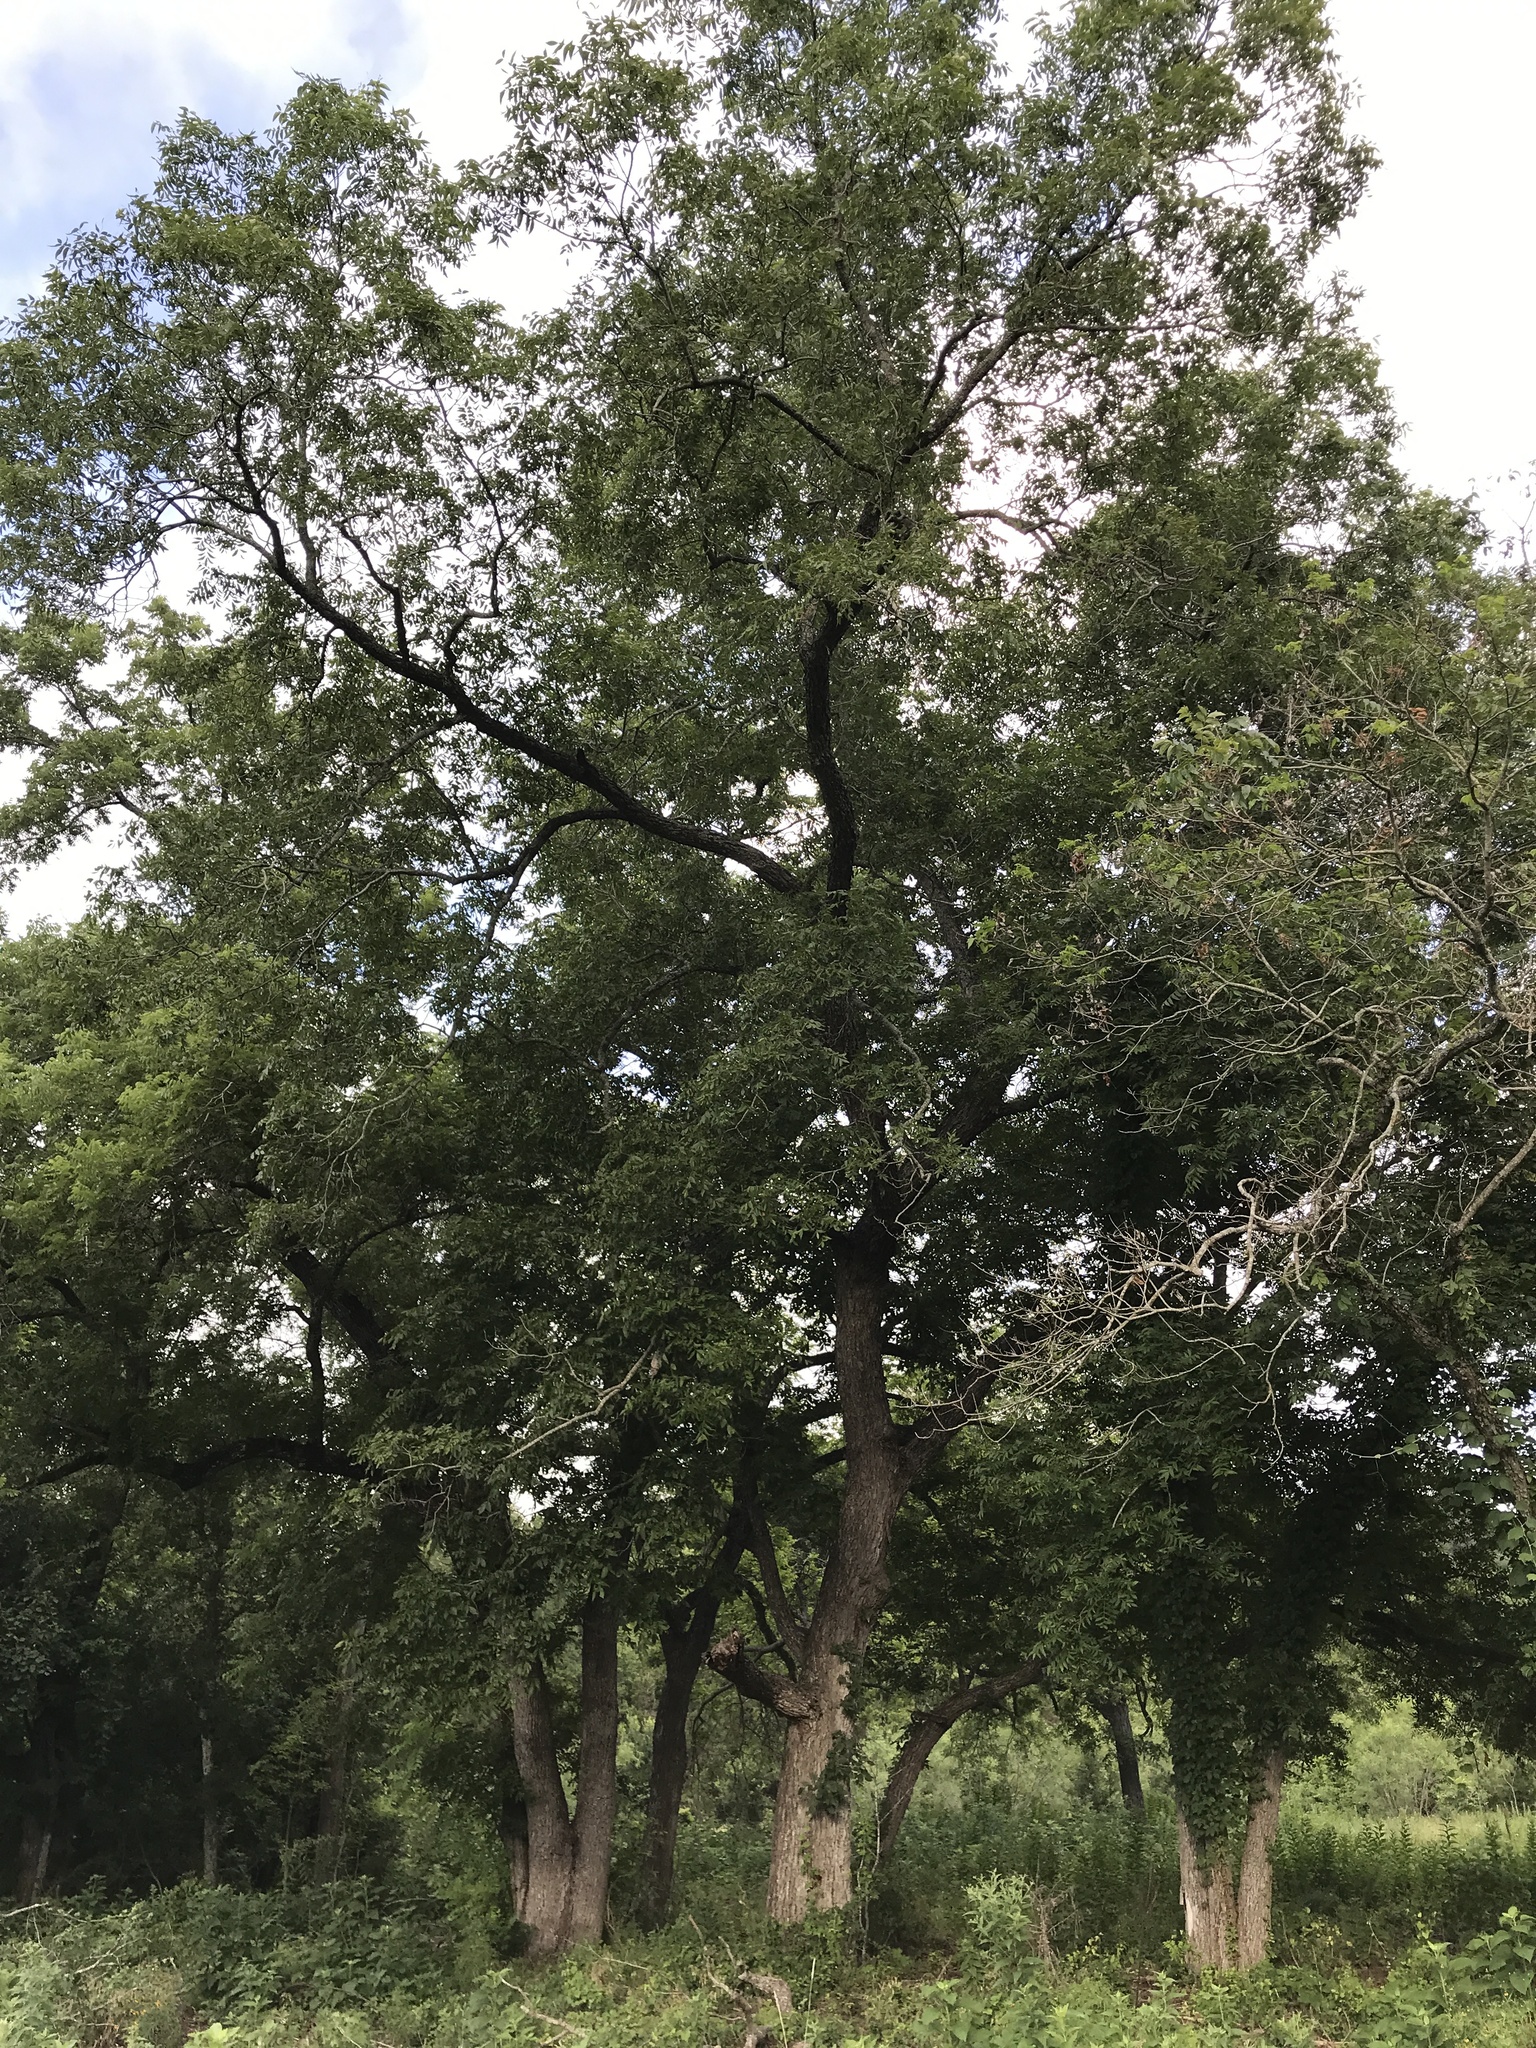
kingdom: Plantae
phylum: Tracheophyta
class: Magnoliopsida
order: Fagales
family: Juglandaceae
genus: Carya
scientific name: Carya illinoinensis
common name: Pecan
